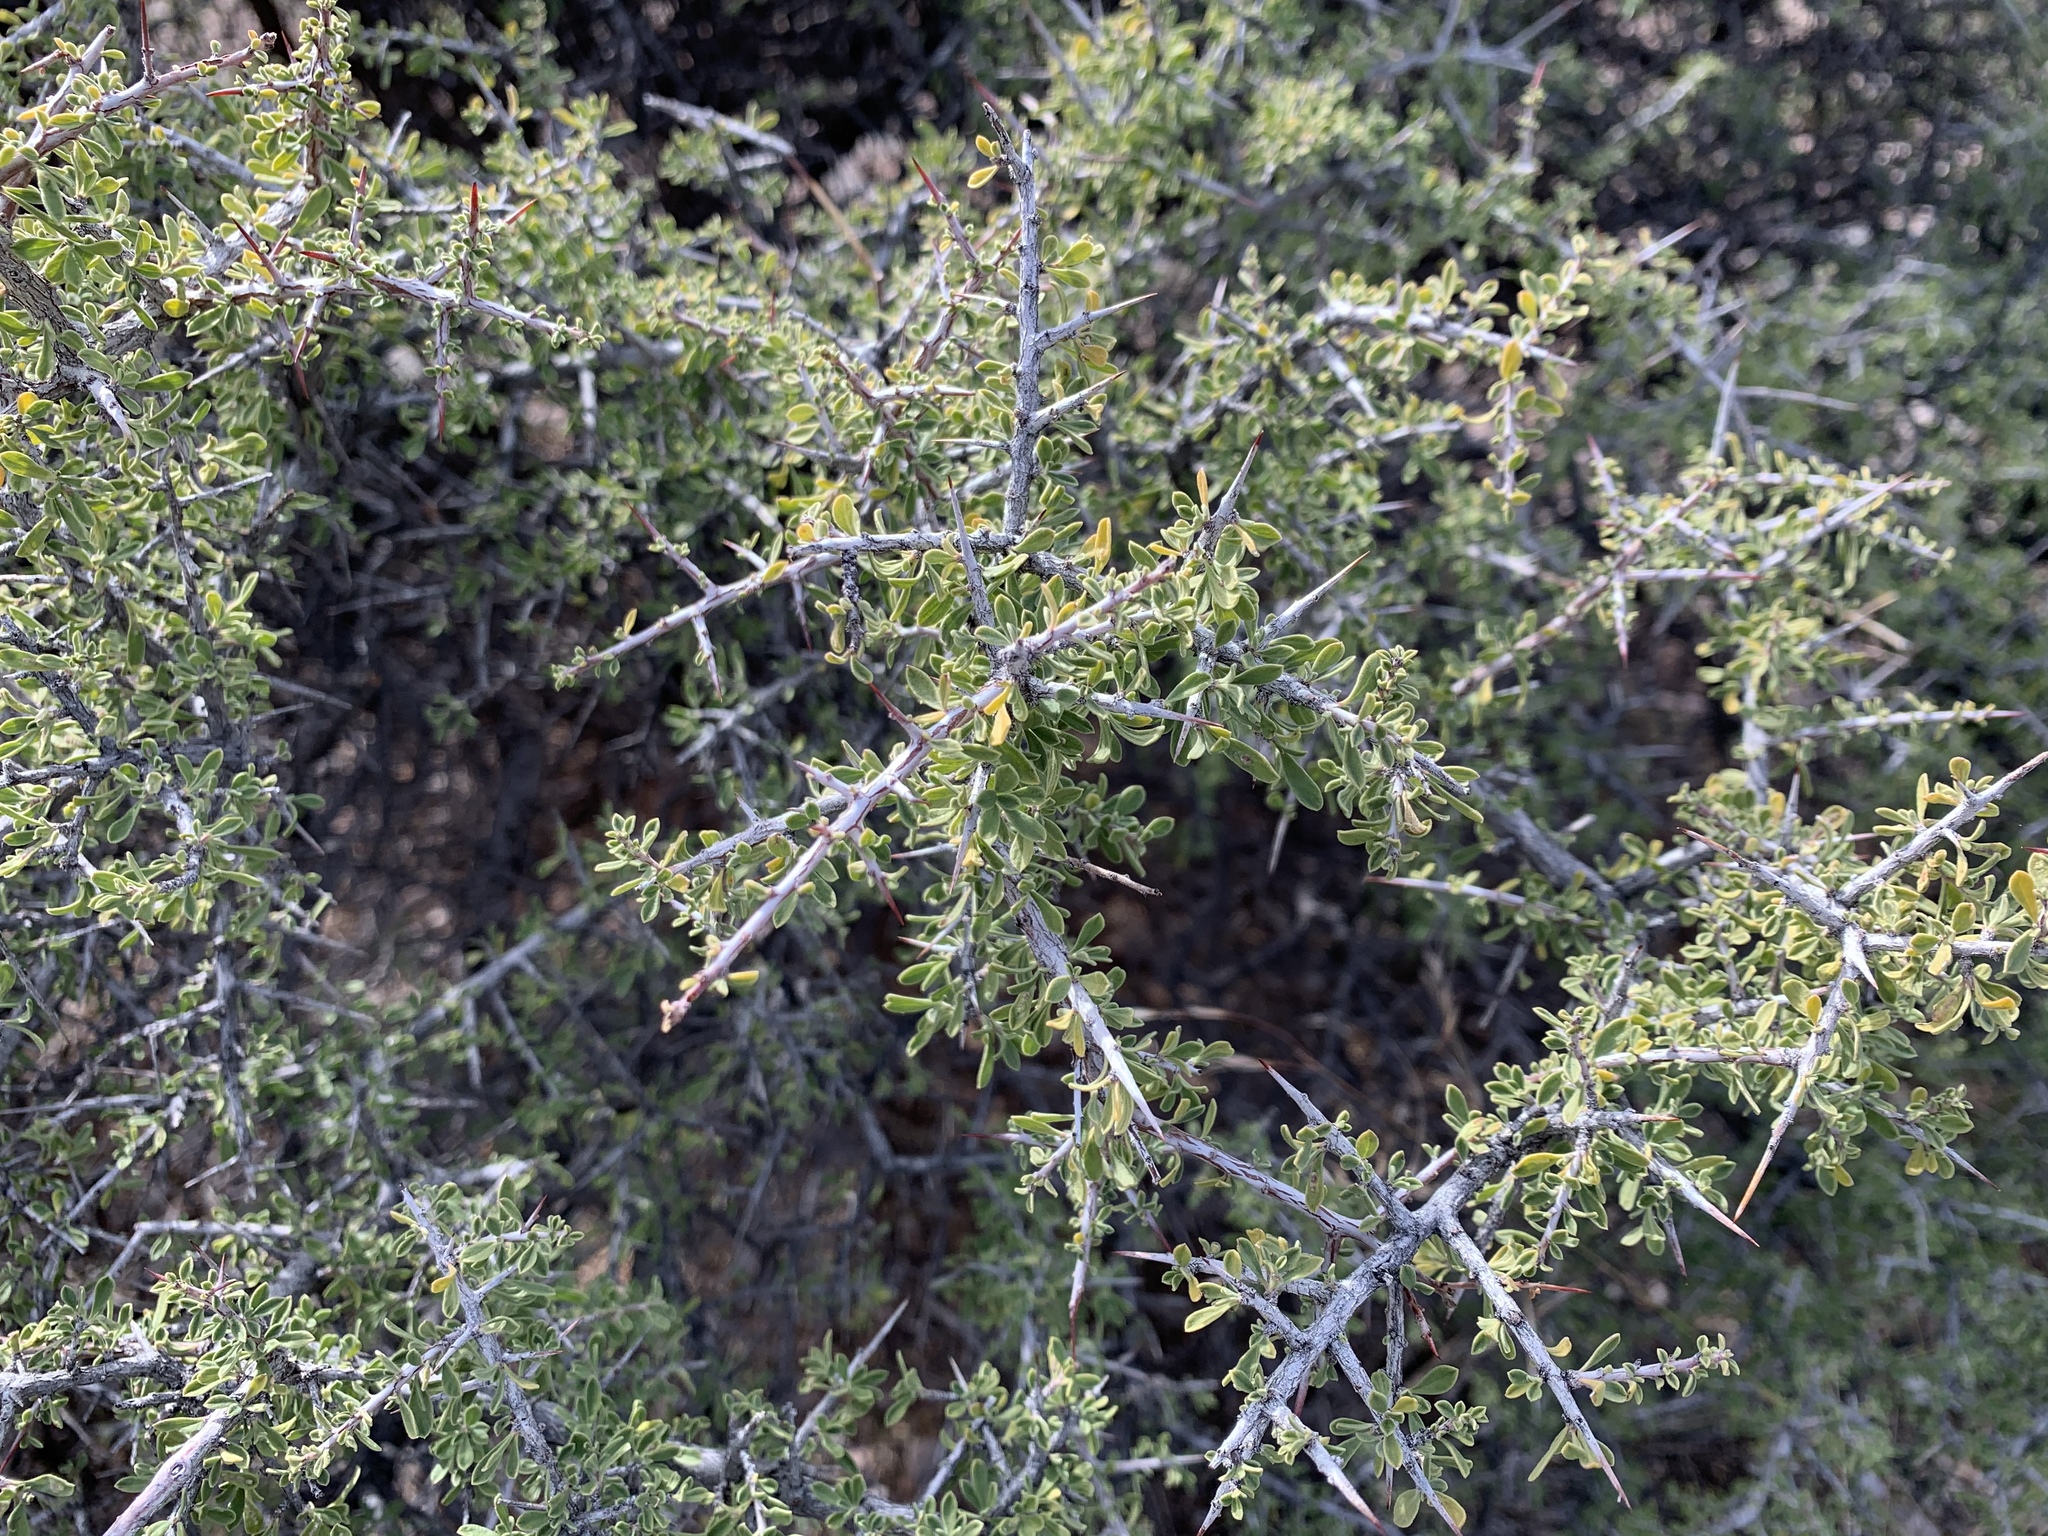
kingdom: Plantae
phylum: Tracheophyta
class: Magnoliopsida
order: Rosales
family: Rhamnaceae
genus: Condalia
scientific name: Condalia warnockii
